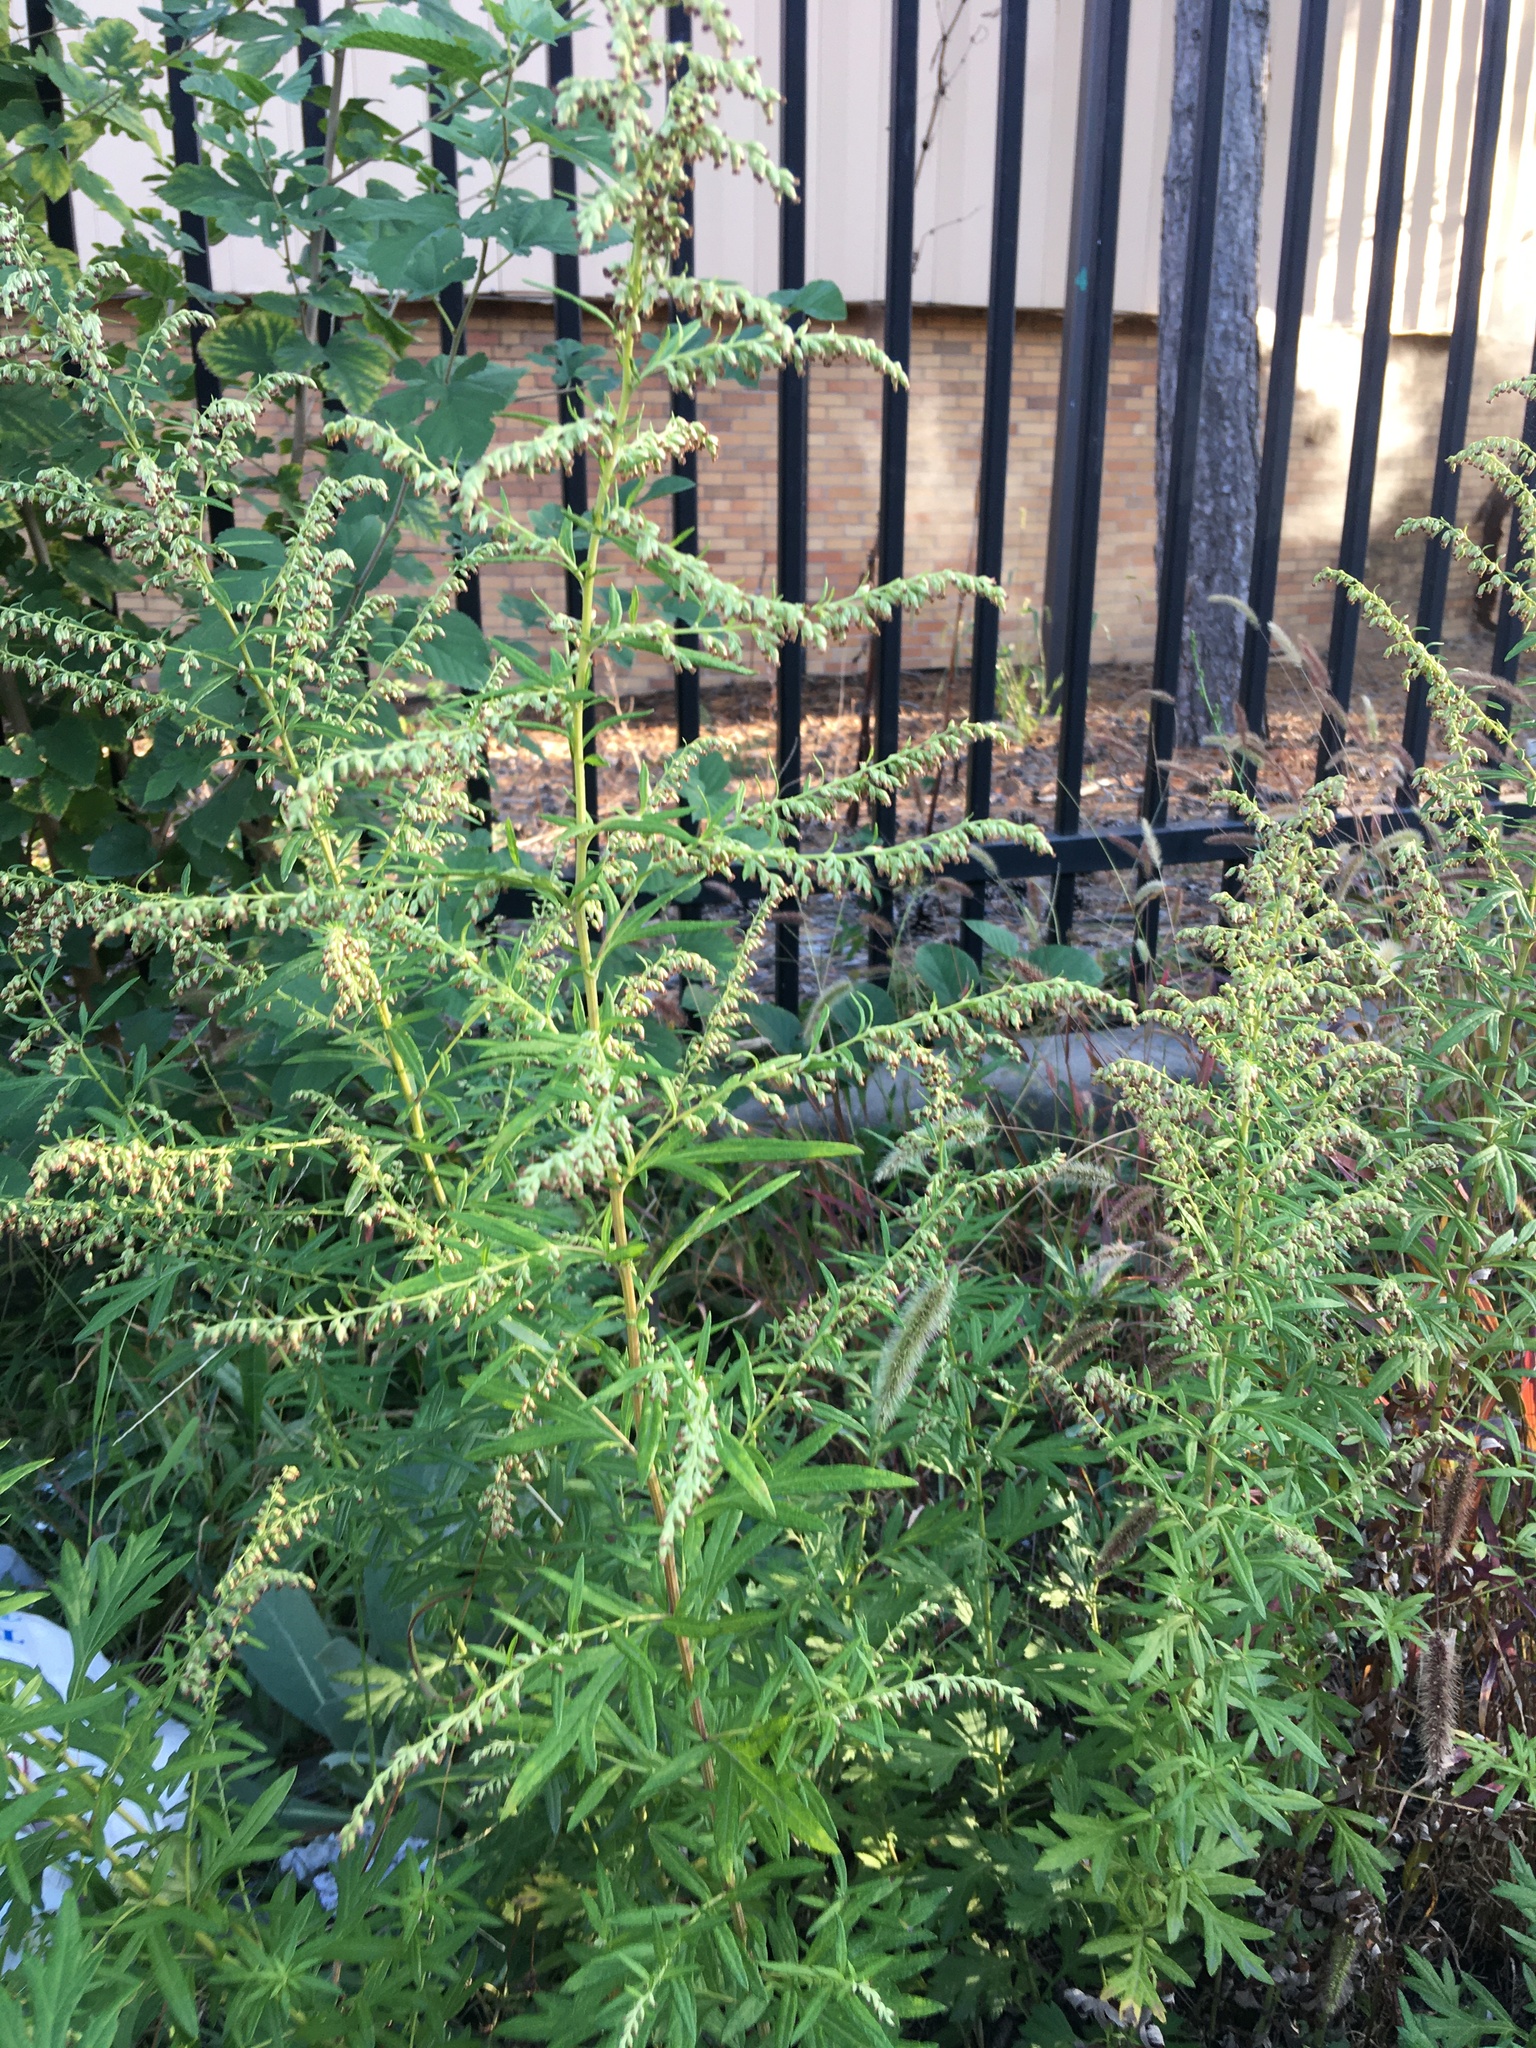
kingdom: Plantae
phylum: Tracheophyta
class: Magnoliopsida
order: Asterales
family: Asteraceae
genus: Artemisia
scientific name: Artemisia vulgaris
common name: Mugwort
